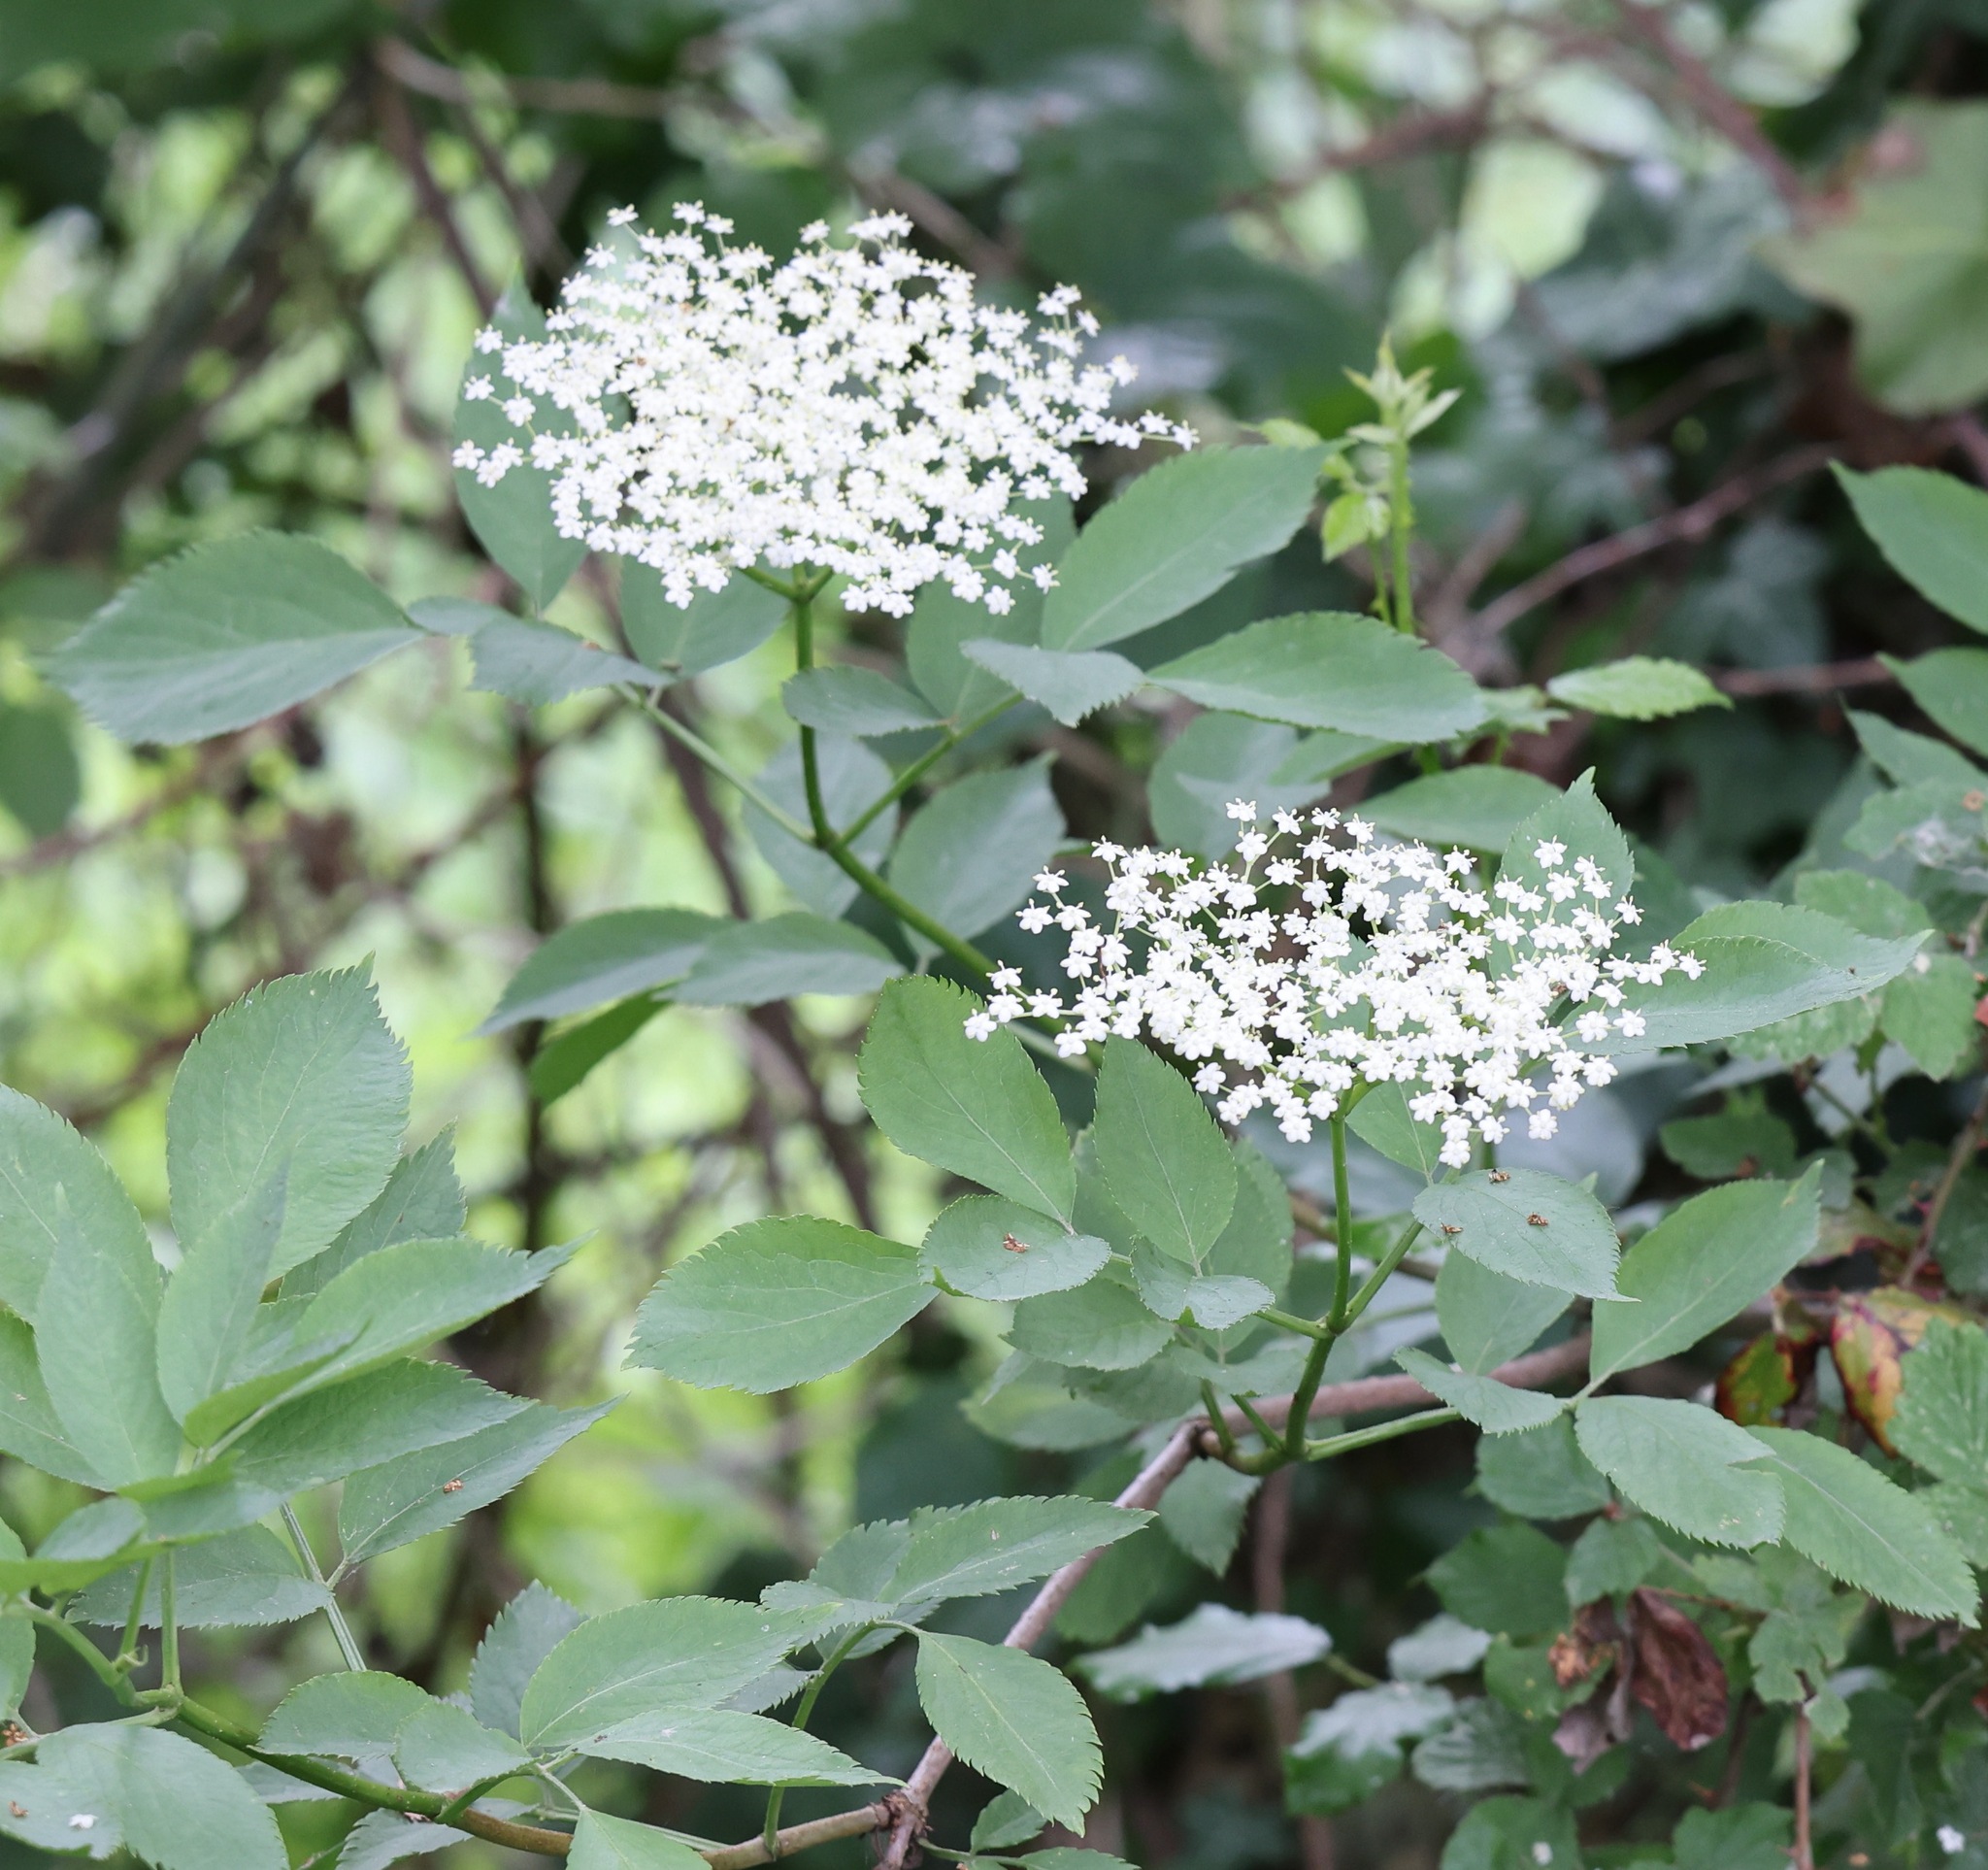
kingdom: Plantae
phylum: Tracheophyta
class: Magnoliopsida
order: Dipsacales
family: Viburnaceae
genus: Sambucus
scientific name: Sambucus nigra
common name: Elder
